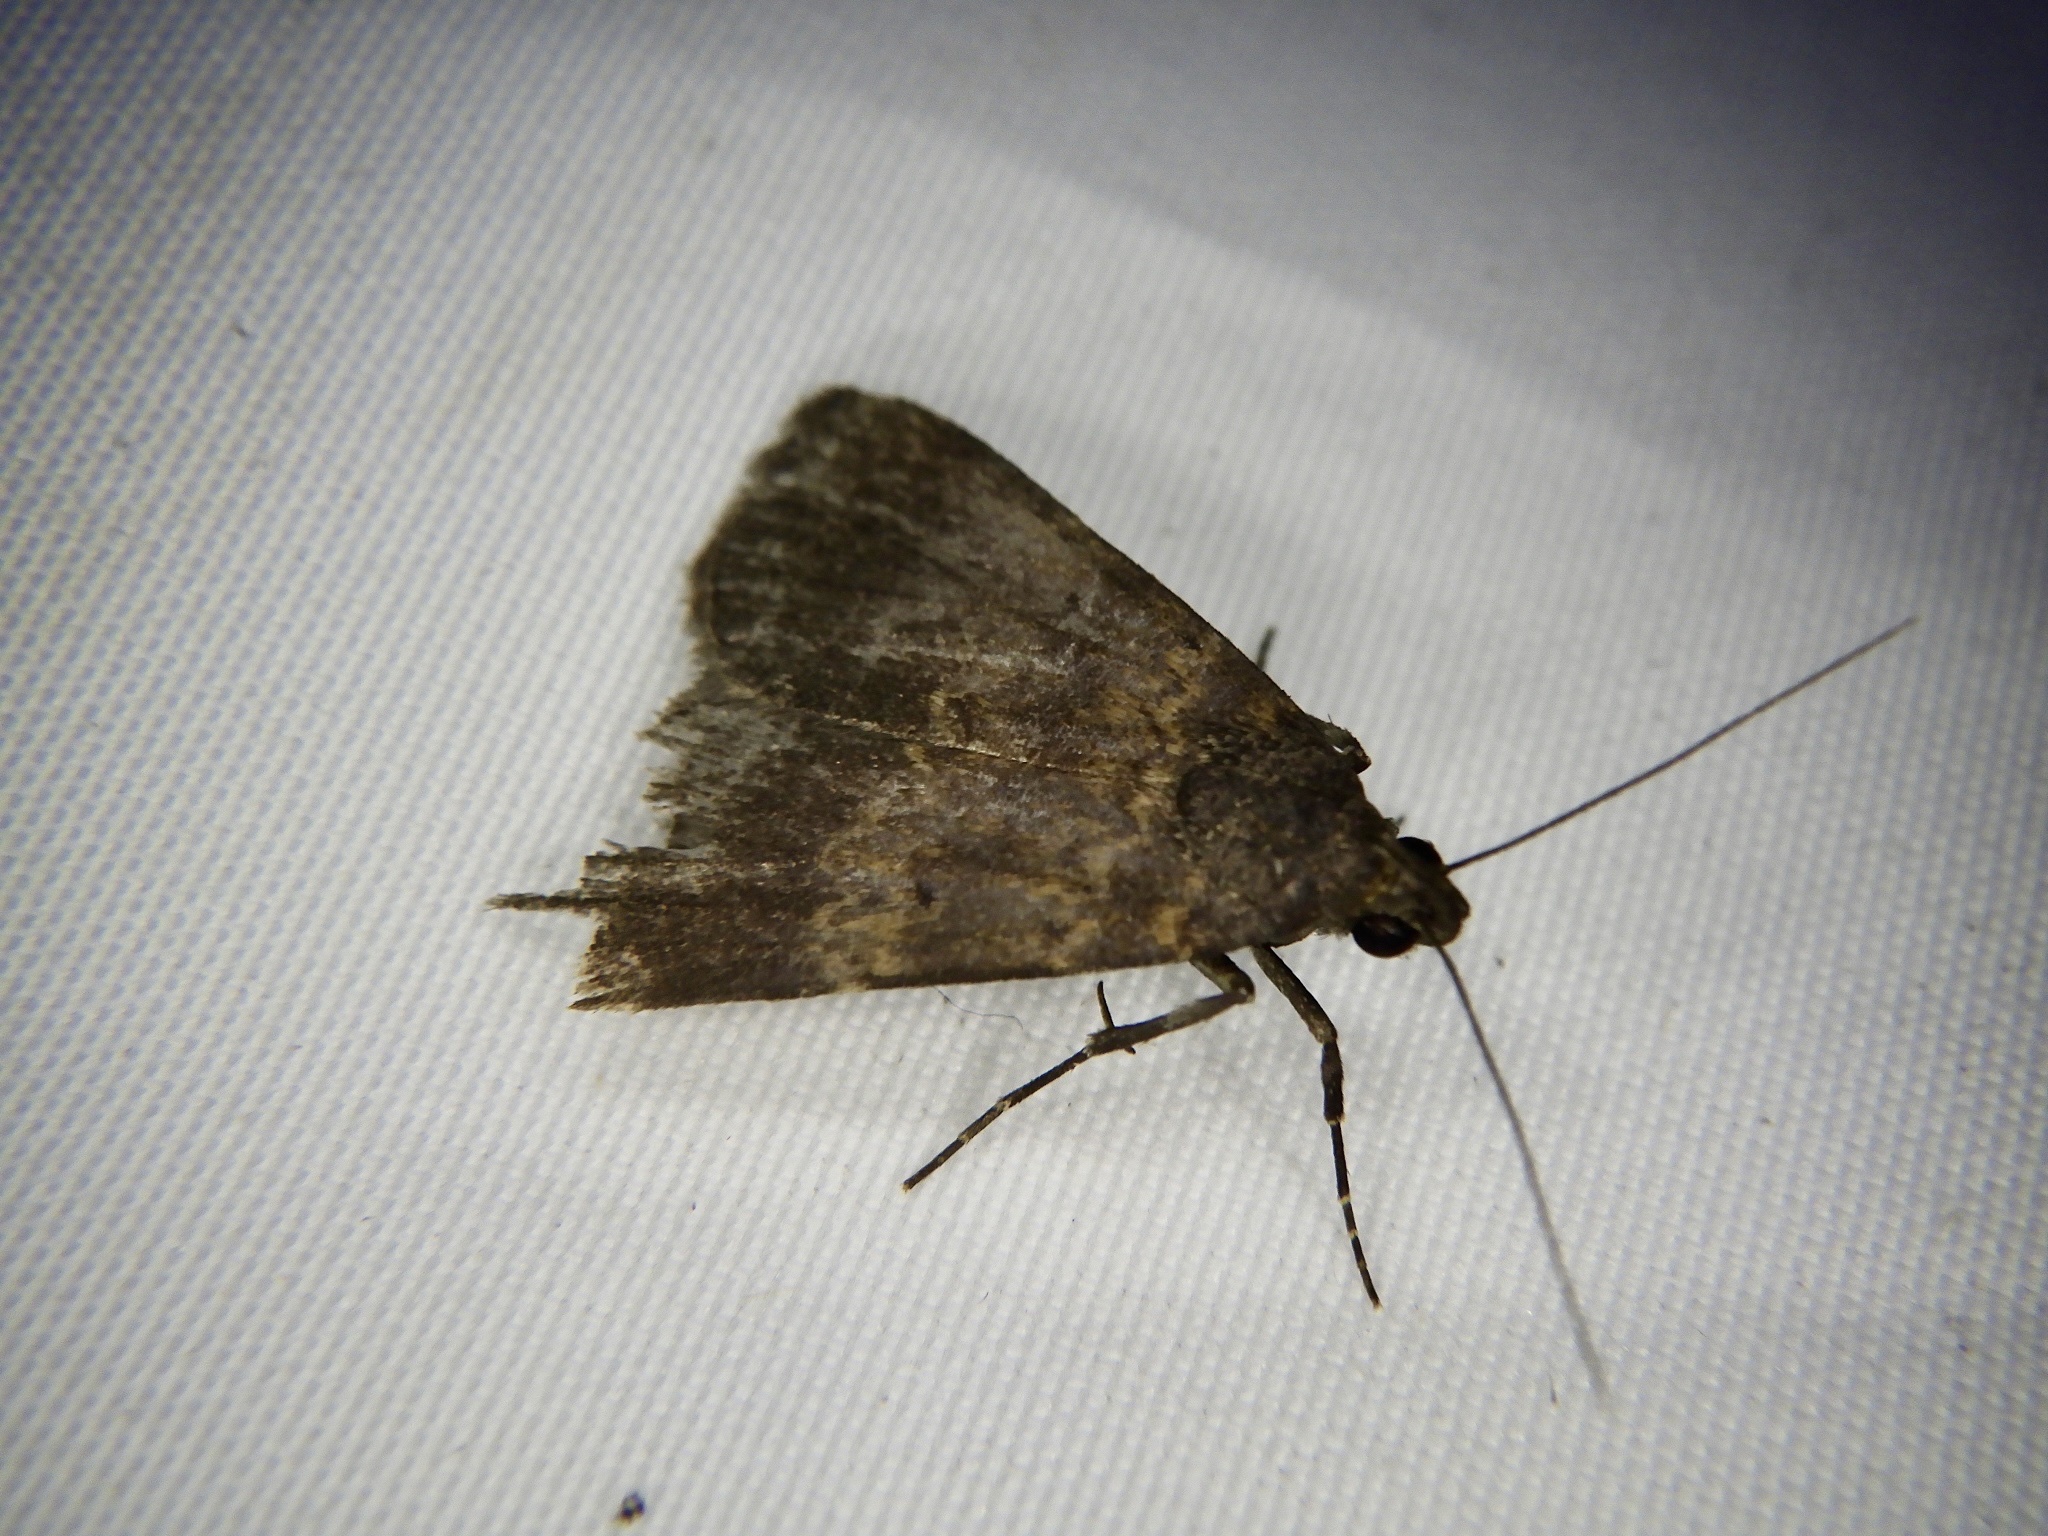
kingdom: Animalia
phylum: Arthropoda
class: Insecta
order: Lepidoptera
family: Erebidae
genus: Hydrillodes
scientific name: Hydrillodes lentalis
